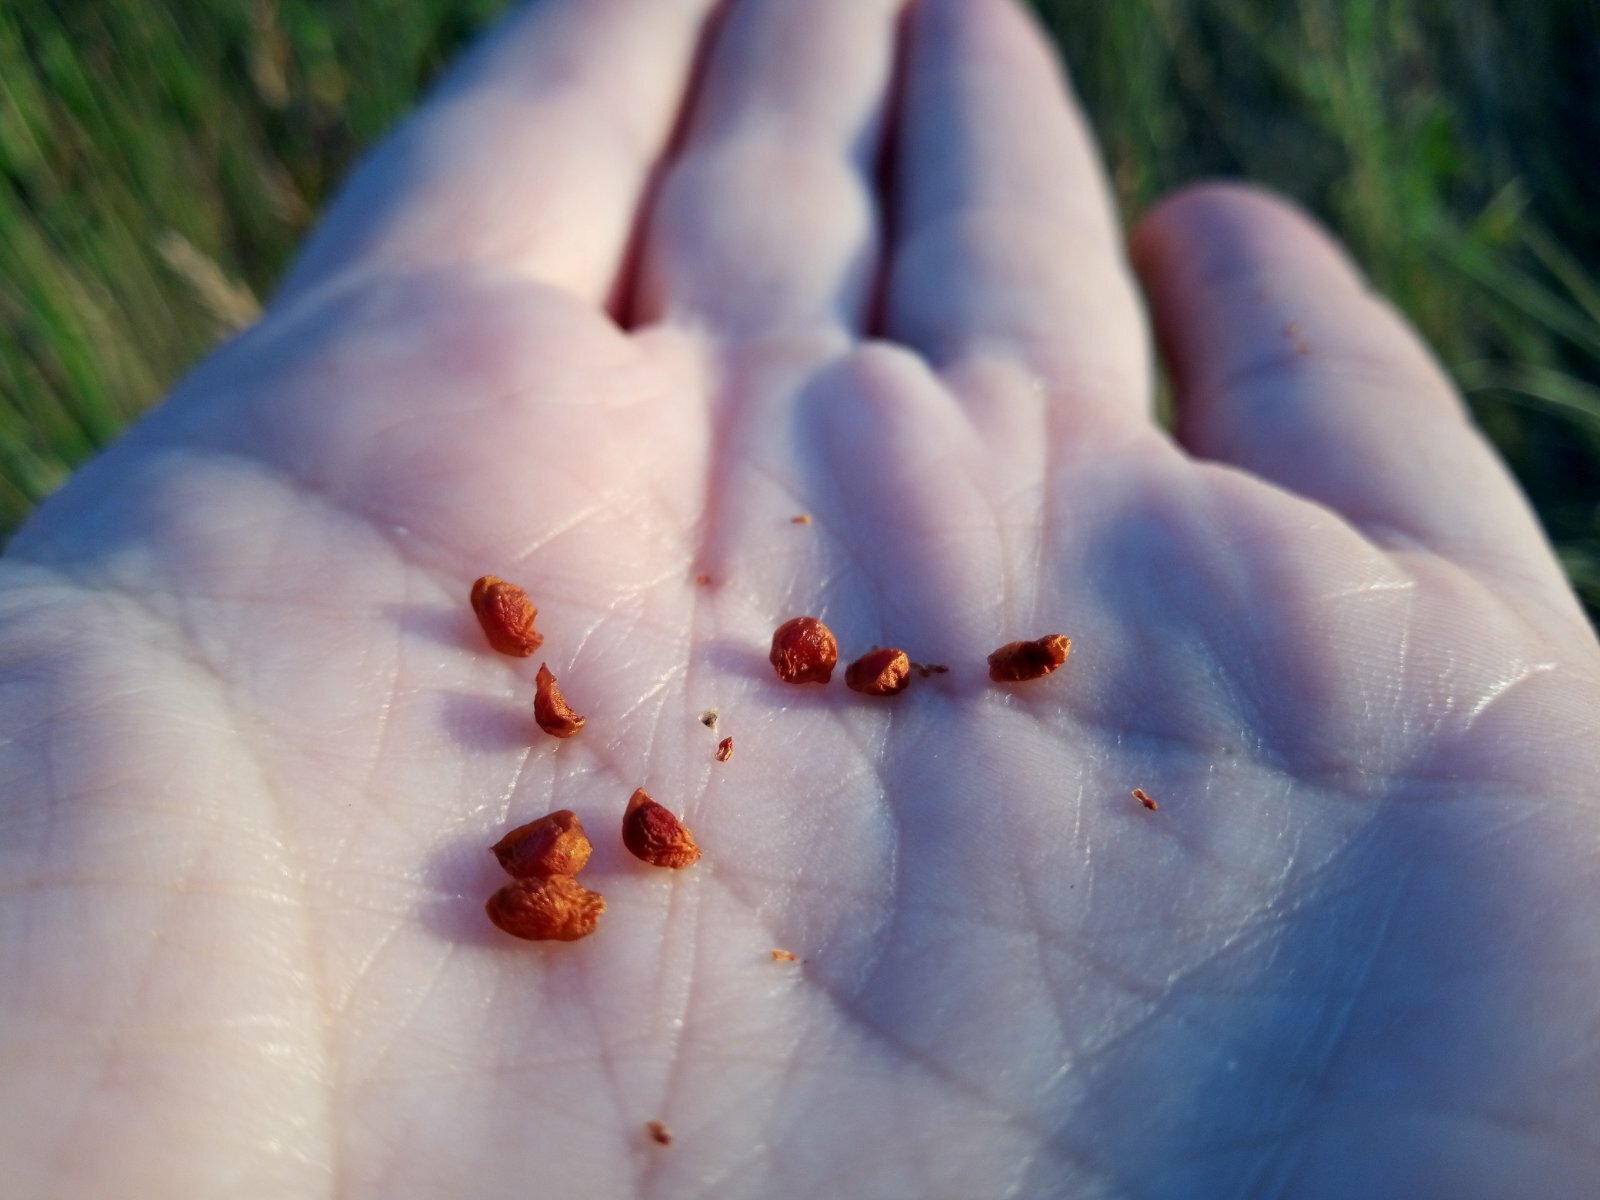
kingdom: Plantae
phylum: Tracheophyta
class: Liliopsida
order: Asparagales
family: Iridaceae
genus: Gladiolus
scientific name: Gladiolus tenuis
